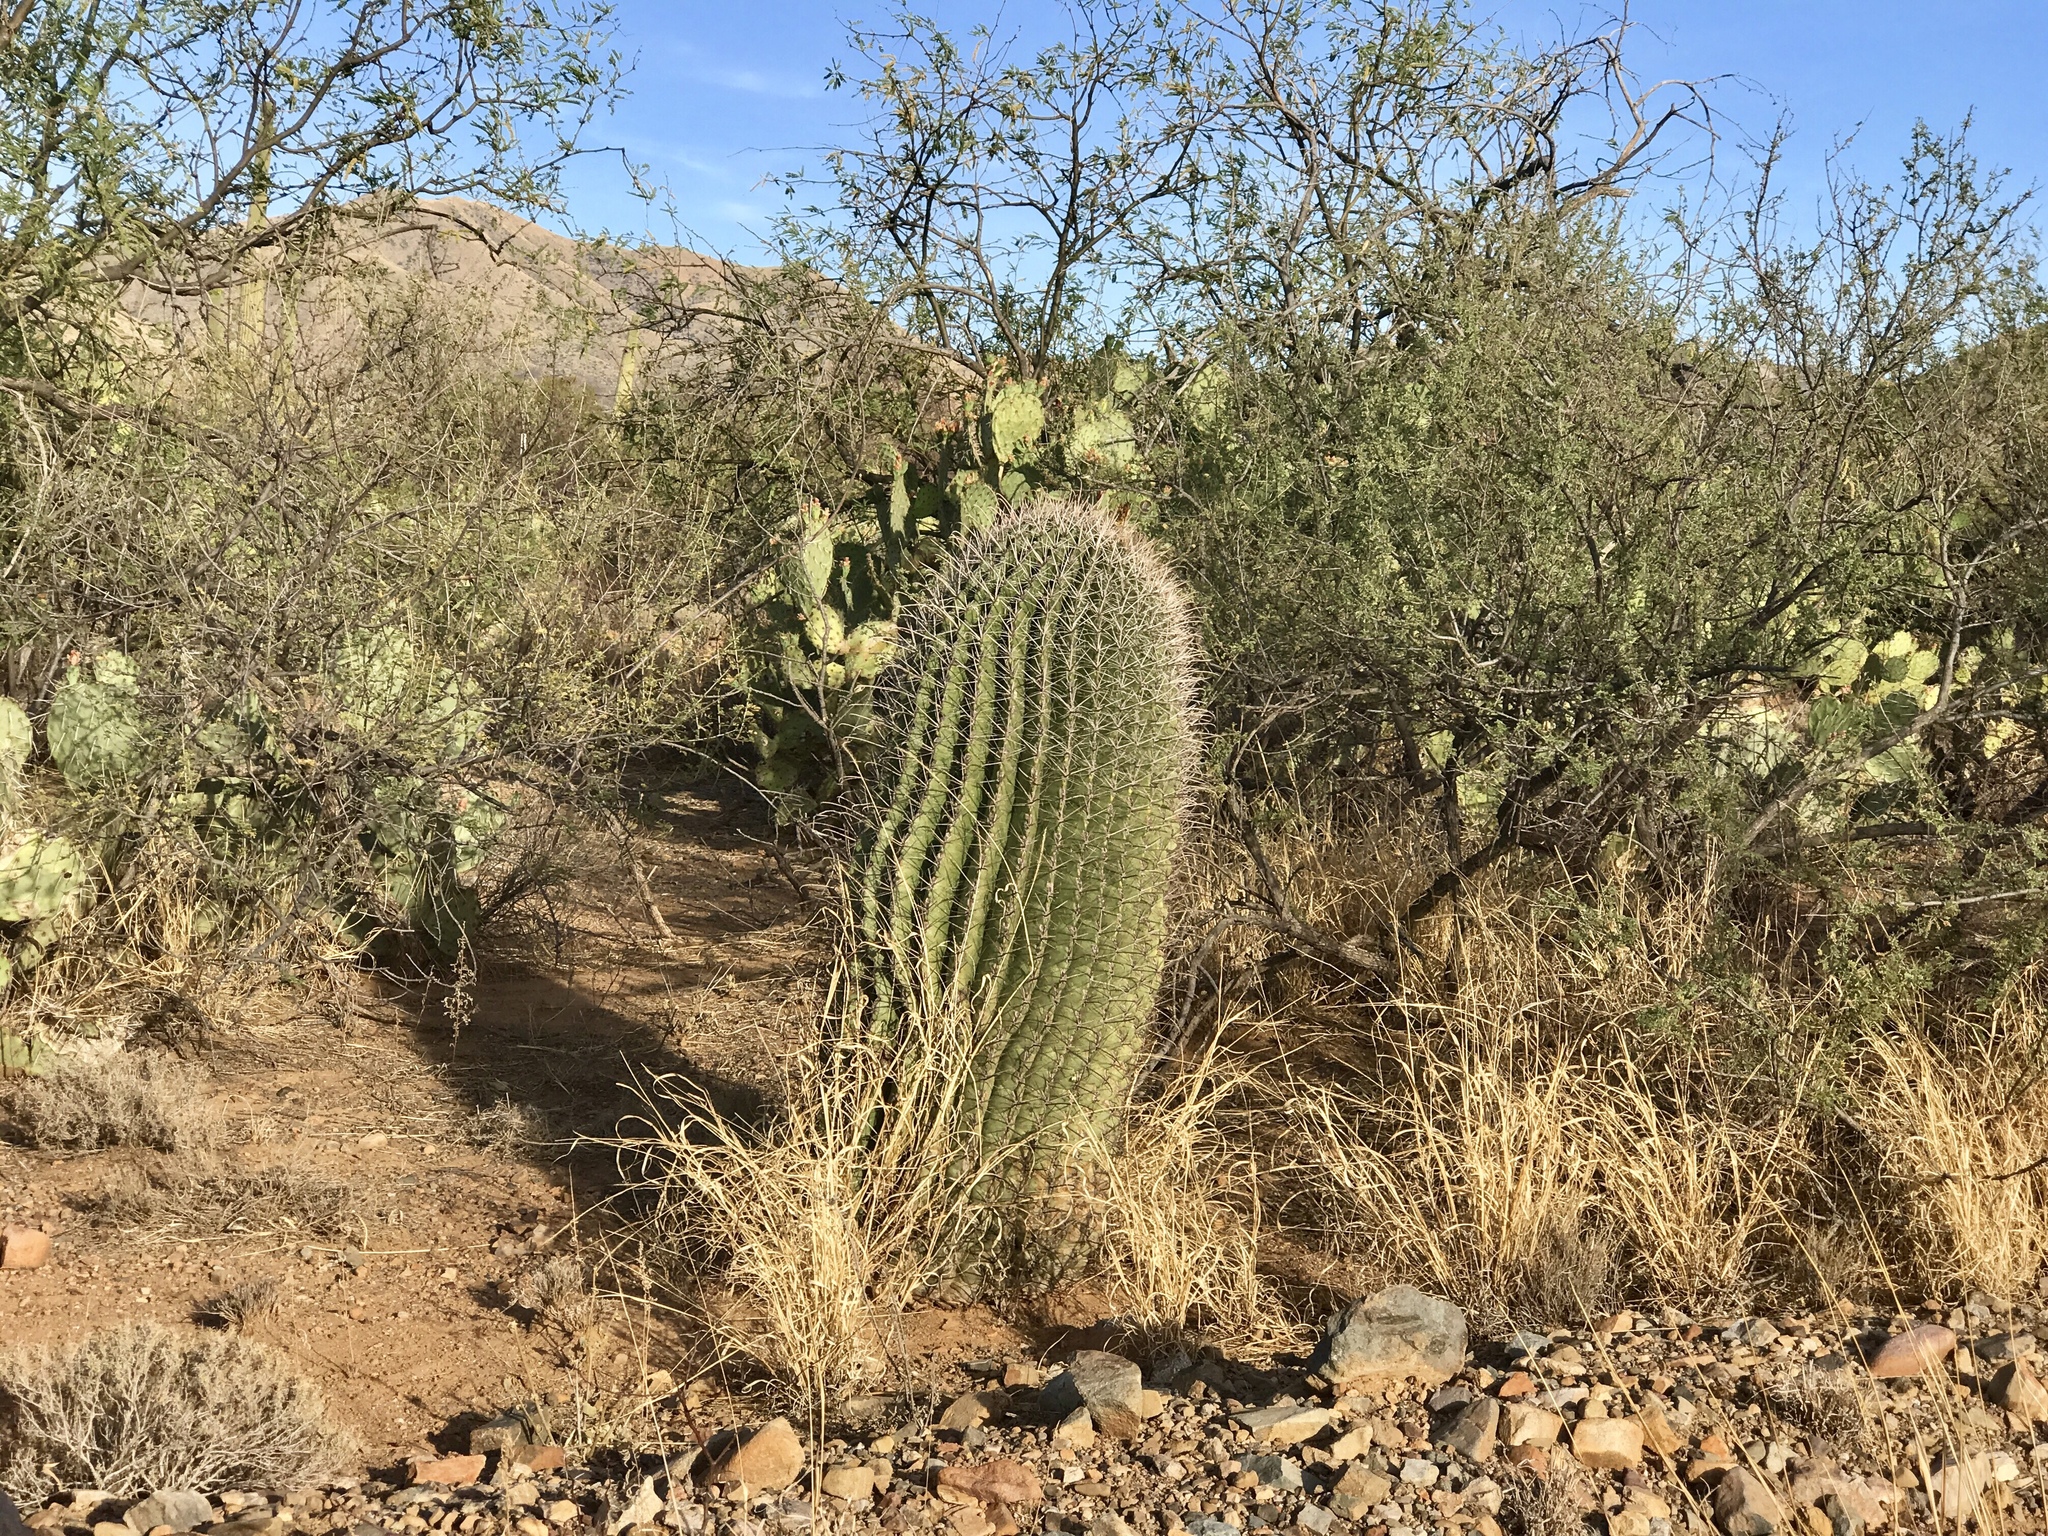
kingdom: Plantae
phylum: Tracheophyta
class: Magnoliopsida
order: Caryophyllales
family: Cactaceae
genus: Ferocactus
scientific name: Ferocactus wislizeni
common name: Candy barrel cactus
